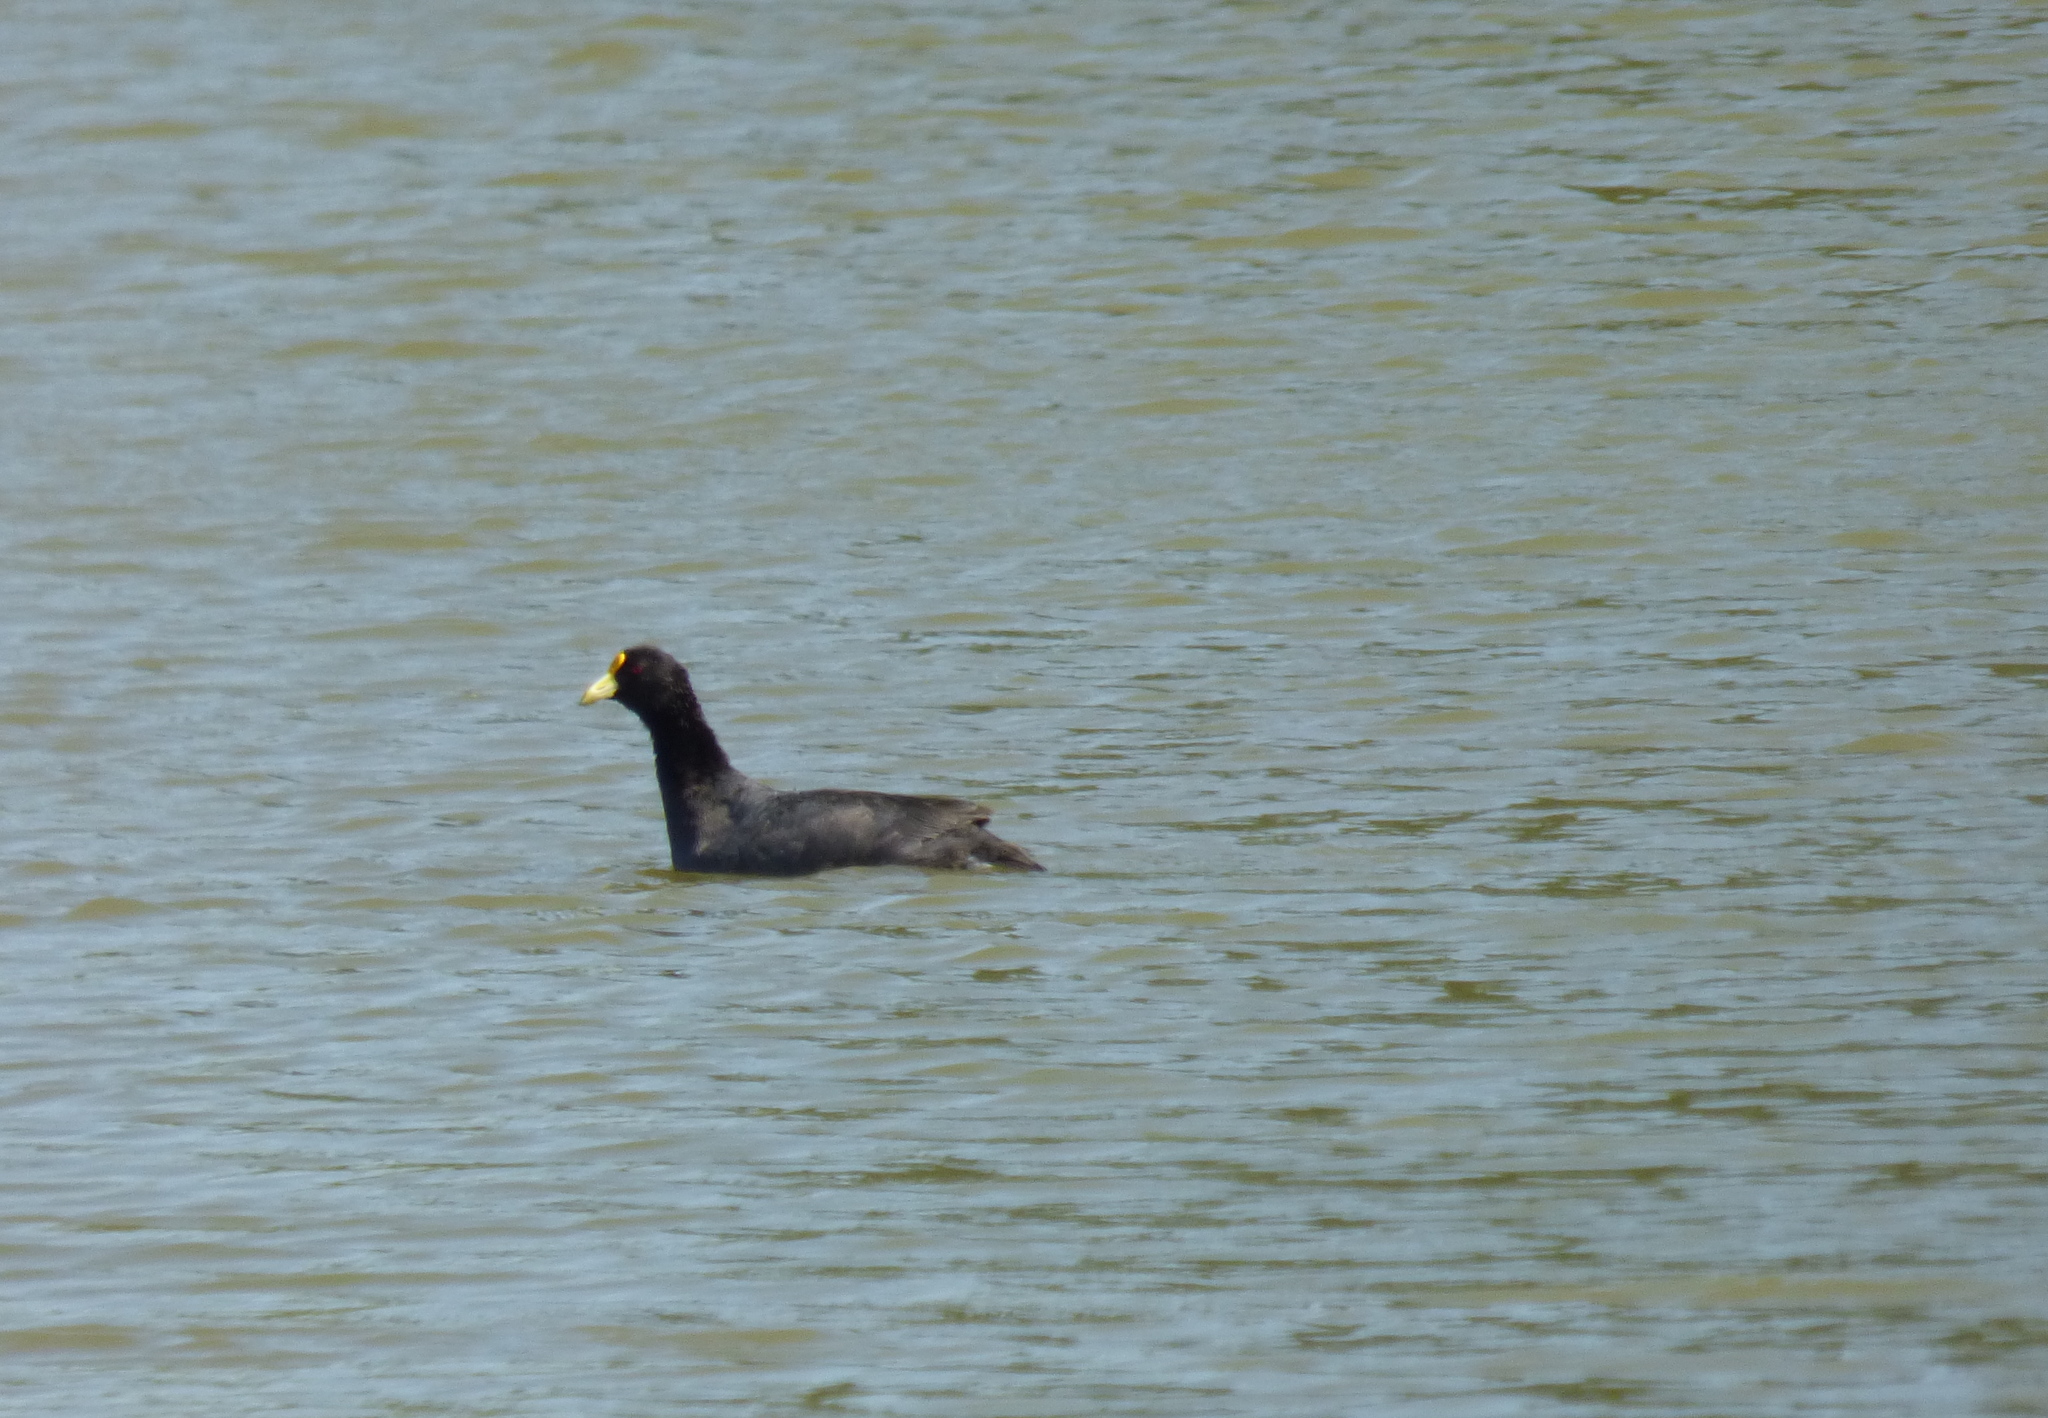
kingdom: Animalia
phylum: Chordata
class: Aves
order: Gruiformes
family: Rallidae
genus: Fulica
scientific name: Fulica leucoptera
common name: White-winged coot
